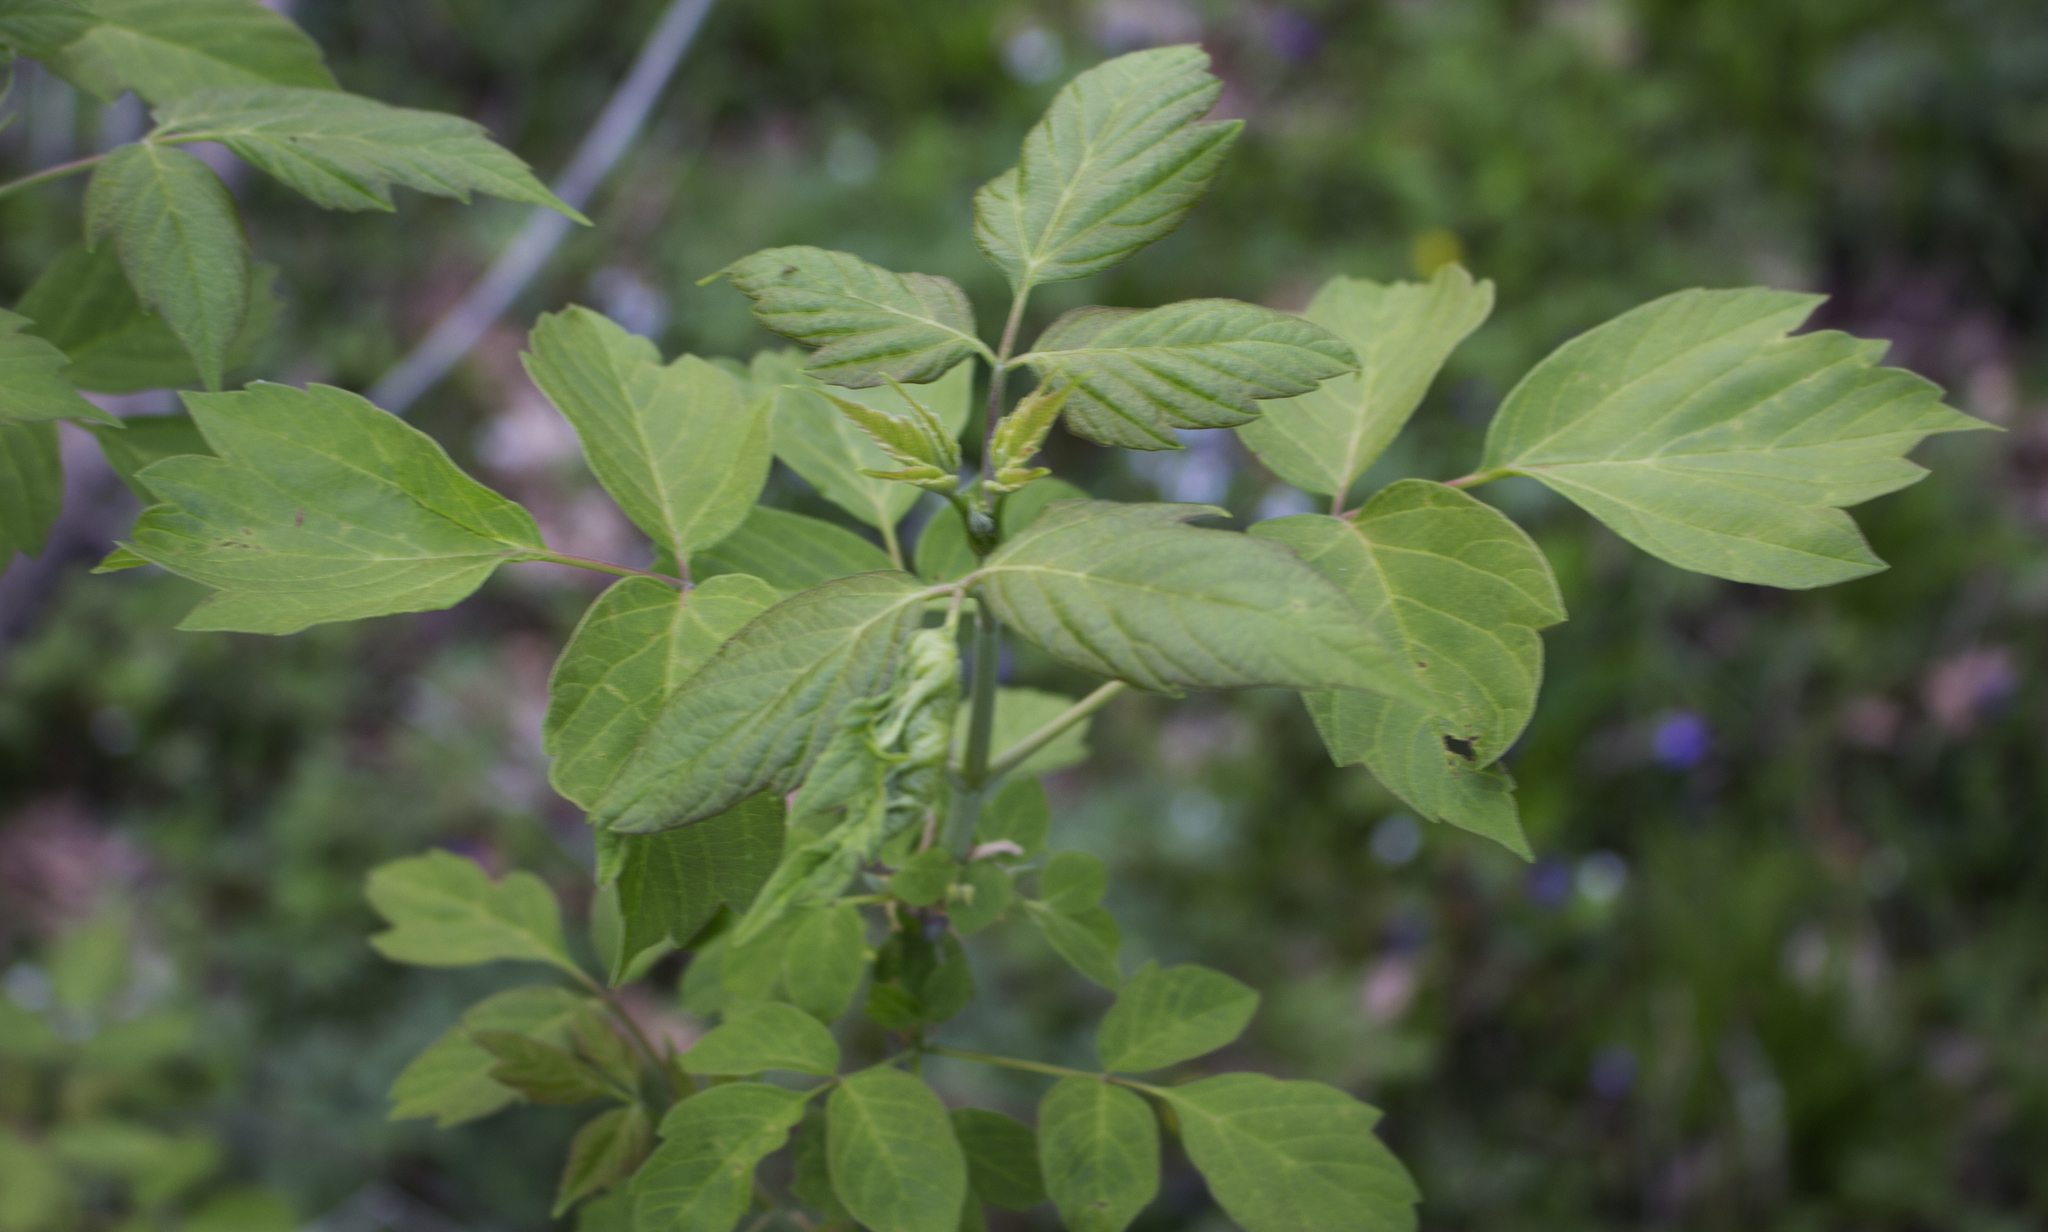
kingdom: Plantae
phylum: Tracheophyta
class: Magnoliopsida
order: Sapindales
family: Sapindaceae
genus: Acer
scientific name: Acer negundo
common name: Ashleaf maple
